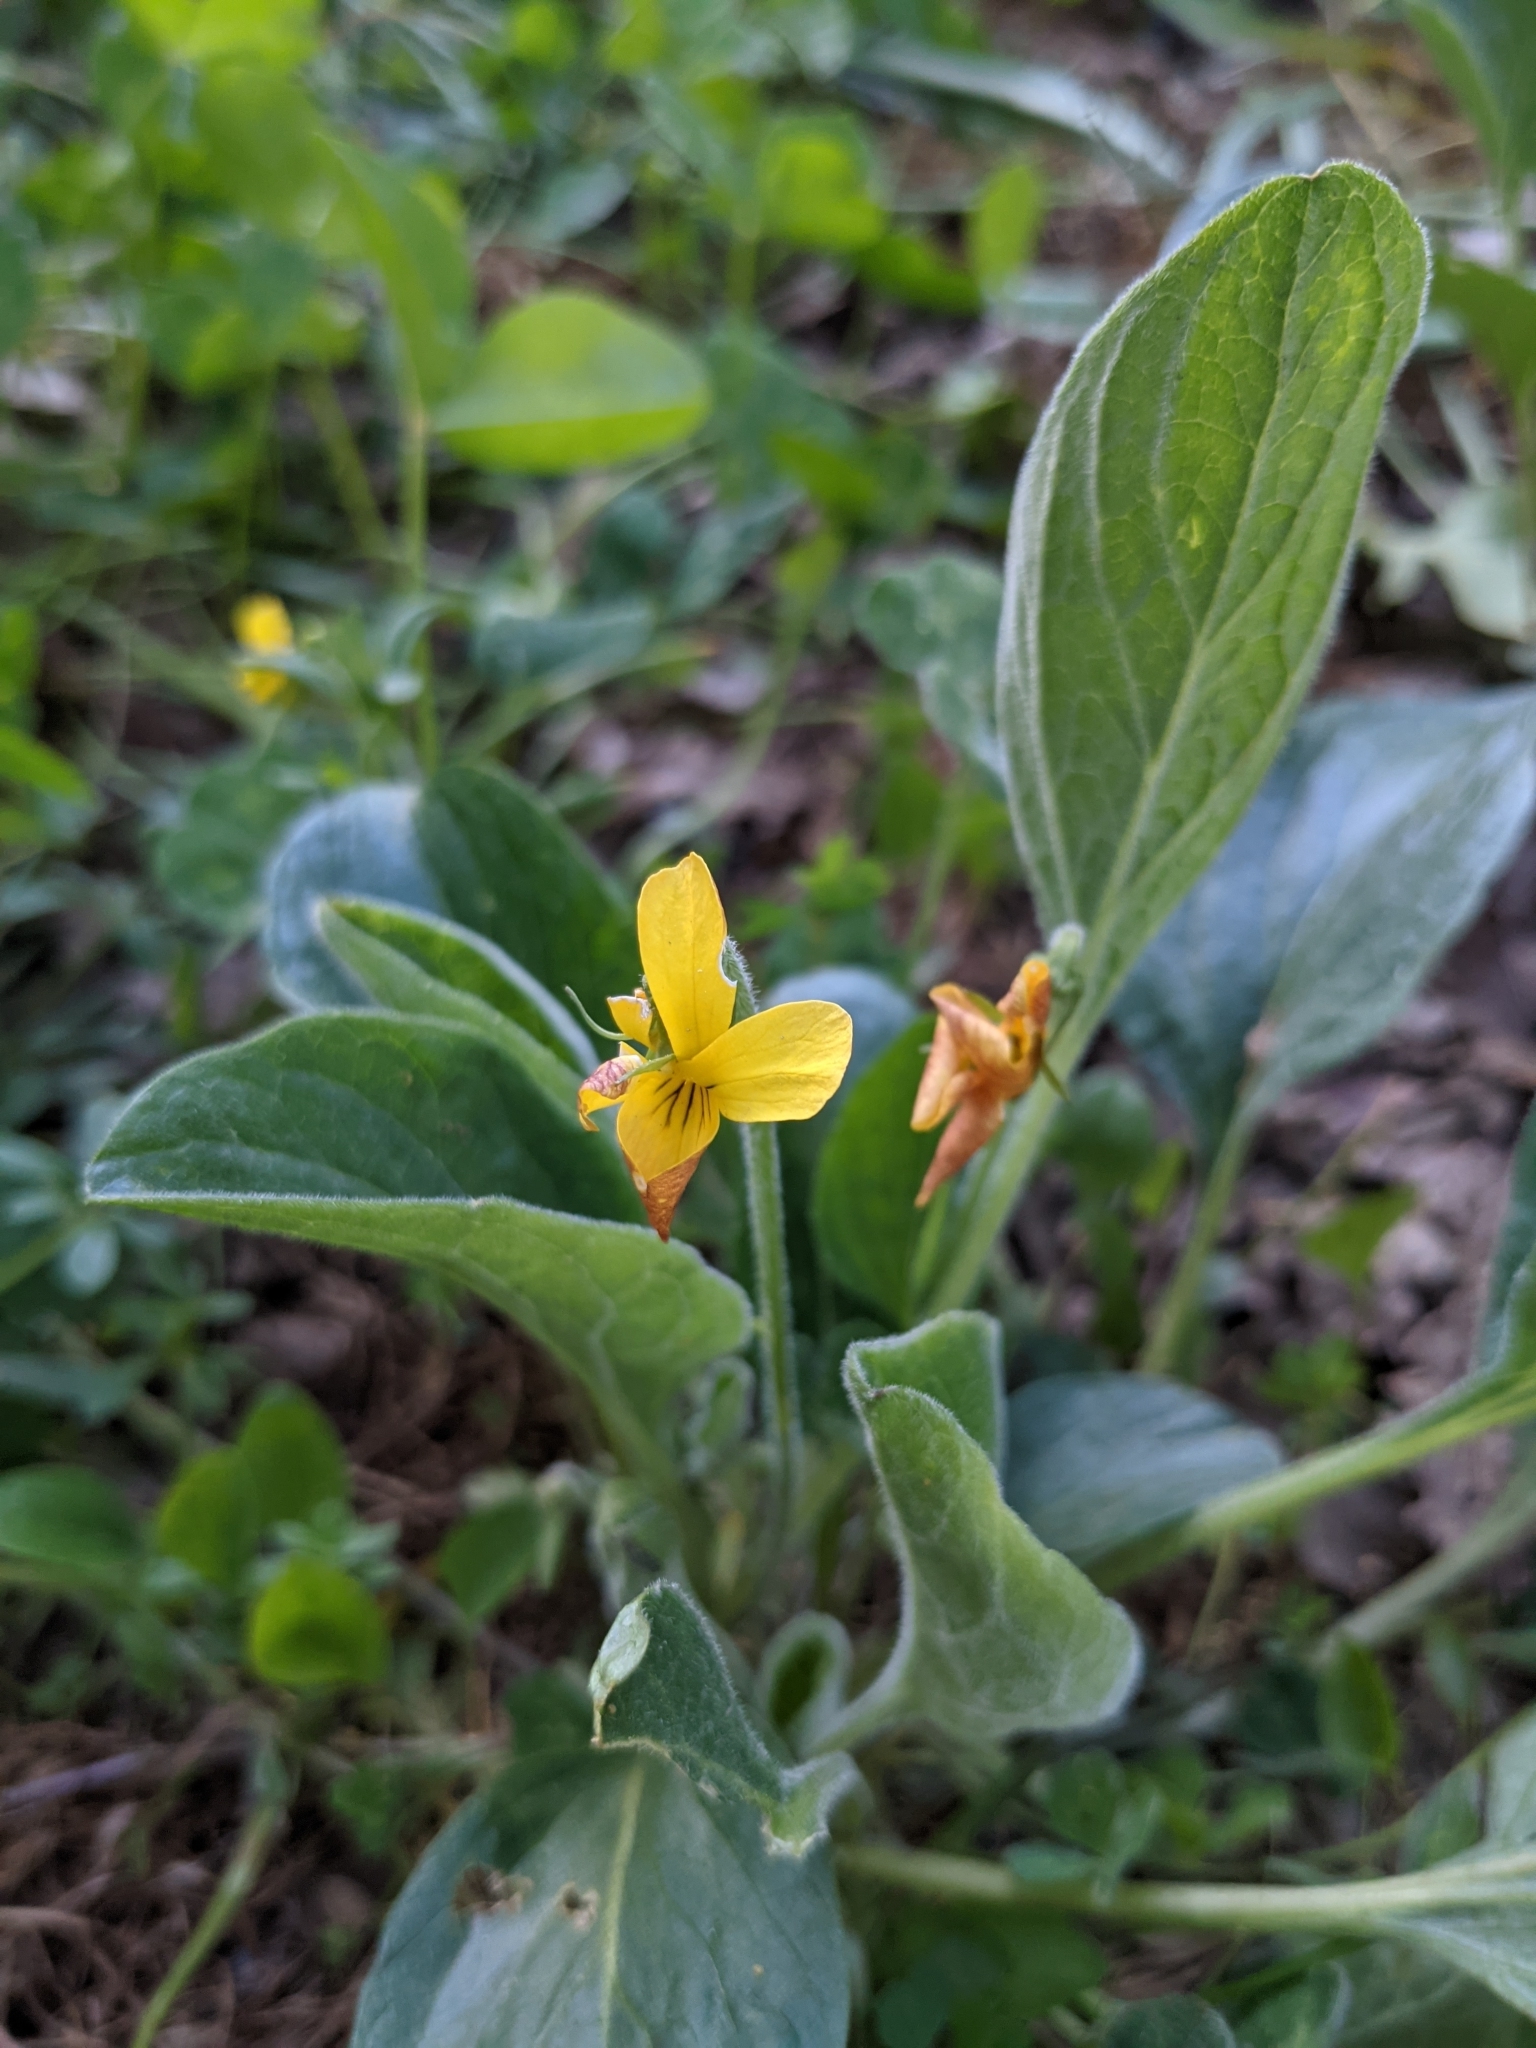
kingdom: Plantae
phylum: Tracheophyta
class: Magnoliopsida
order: Malpighiales
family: Violaceae
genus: Viola
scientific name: Viola praemorsa
